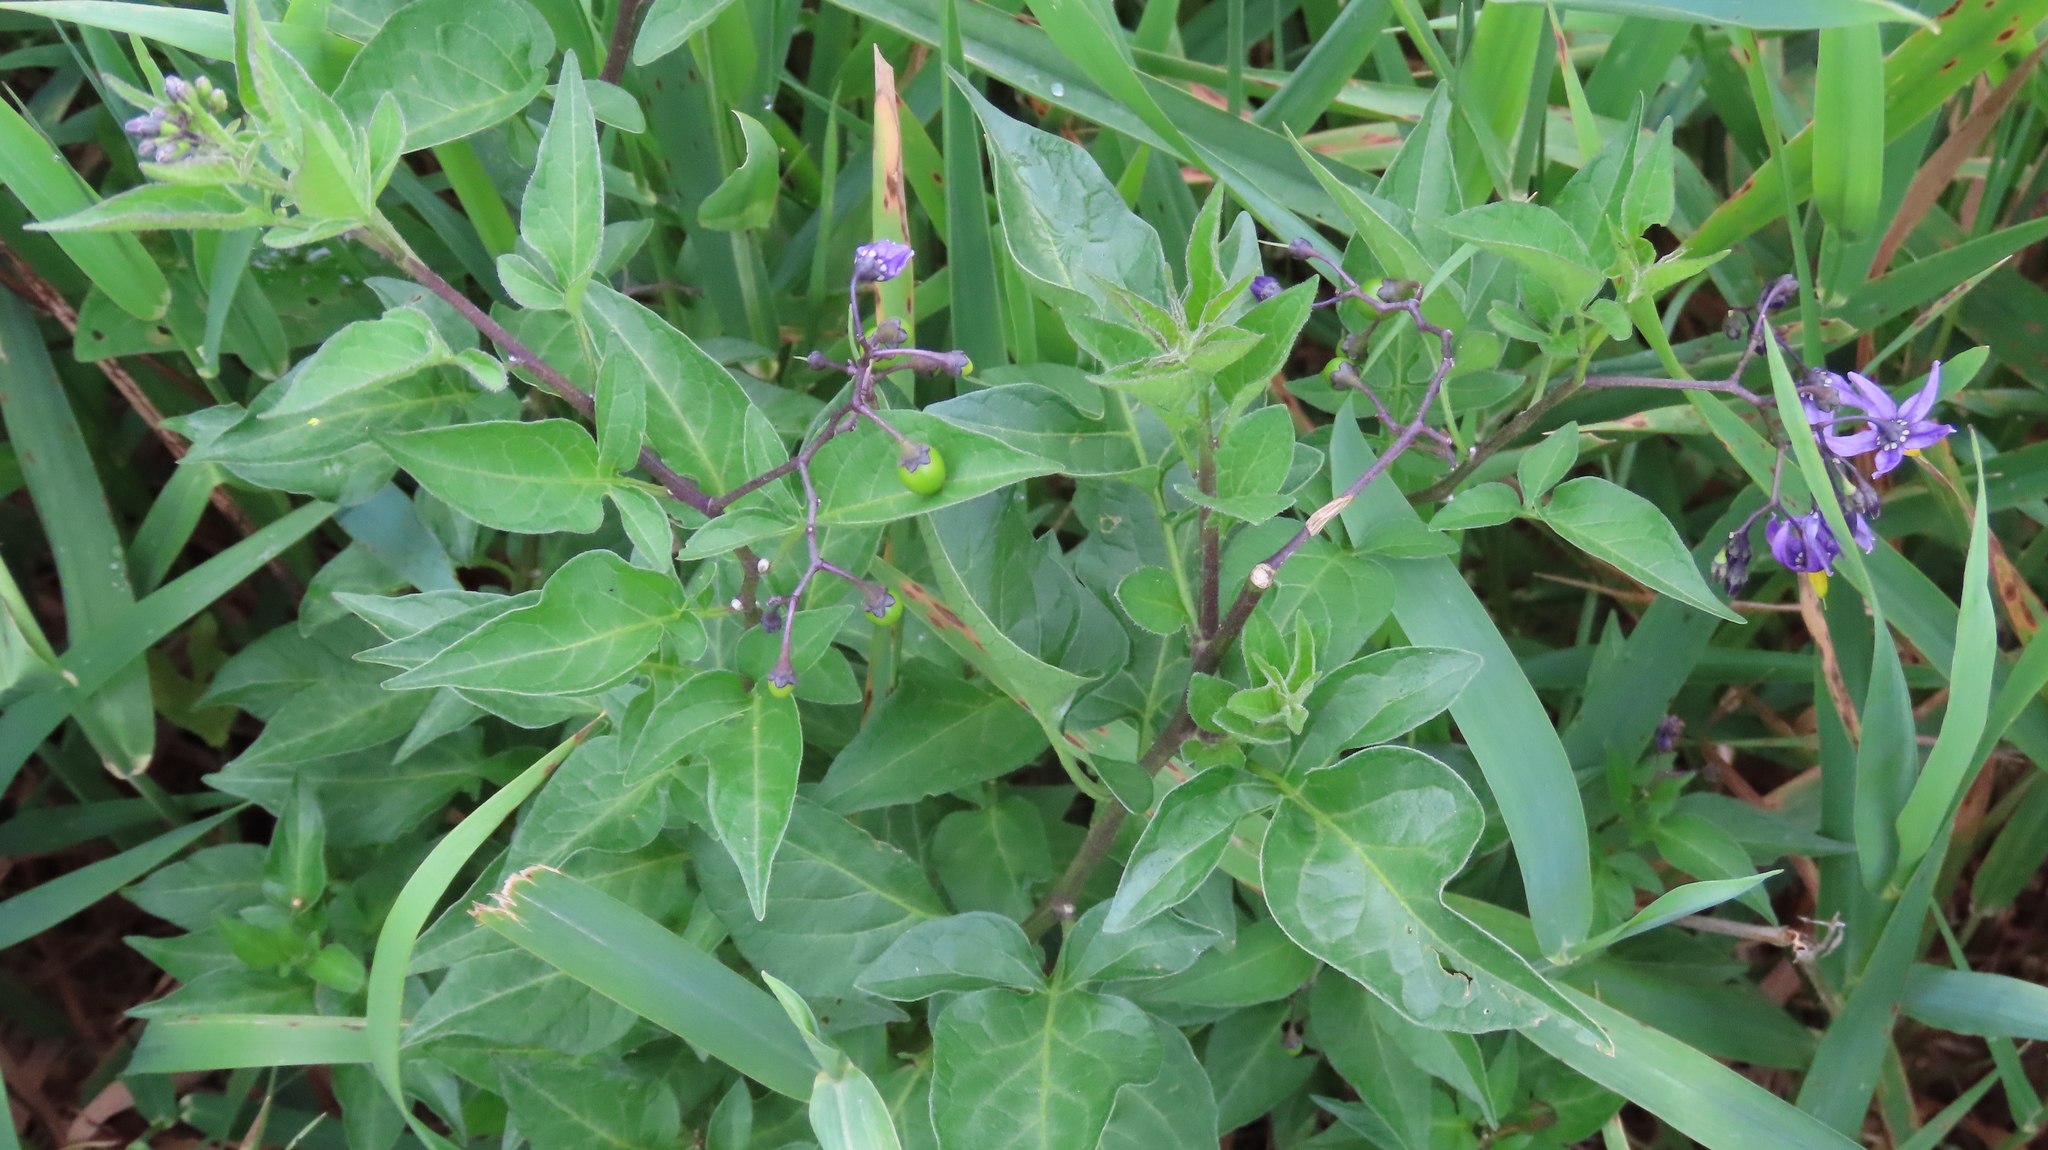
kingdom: Plantae
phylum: Tracheophyta
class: Magnoliopsida
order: Solanales
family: Solanaceae
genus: Solanum
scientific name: Solanum dulcamara
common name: Climbing nightshade
